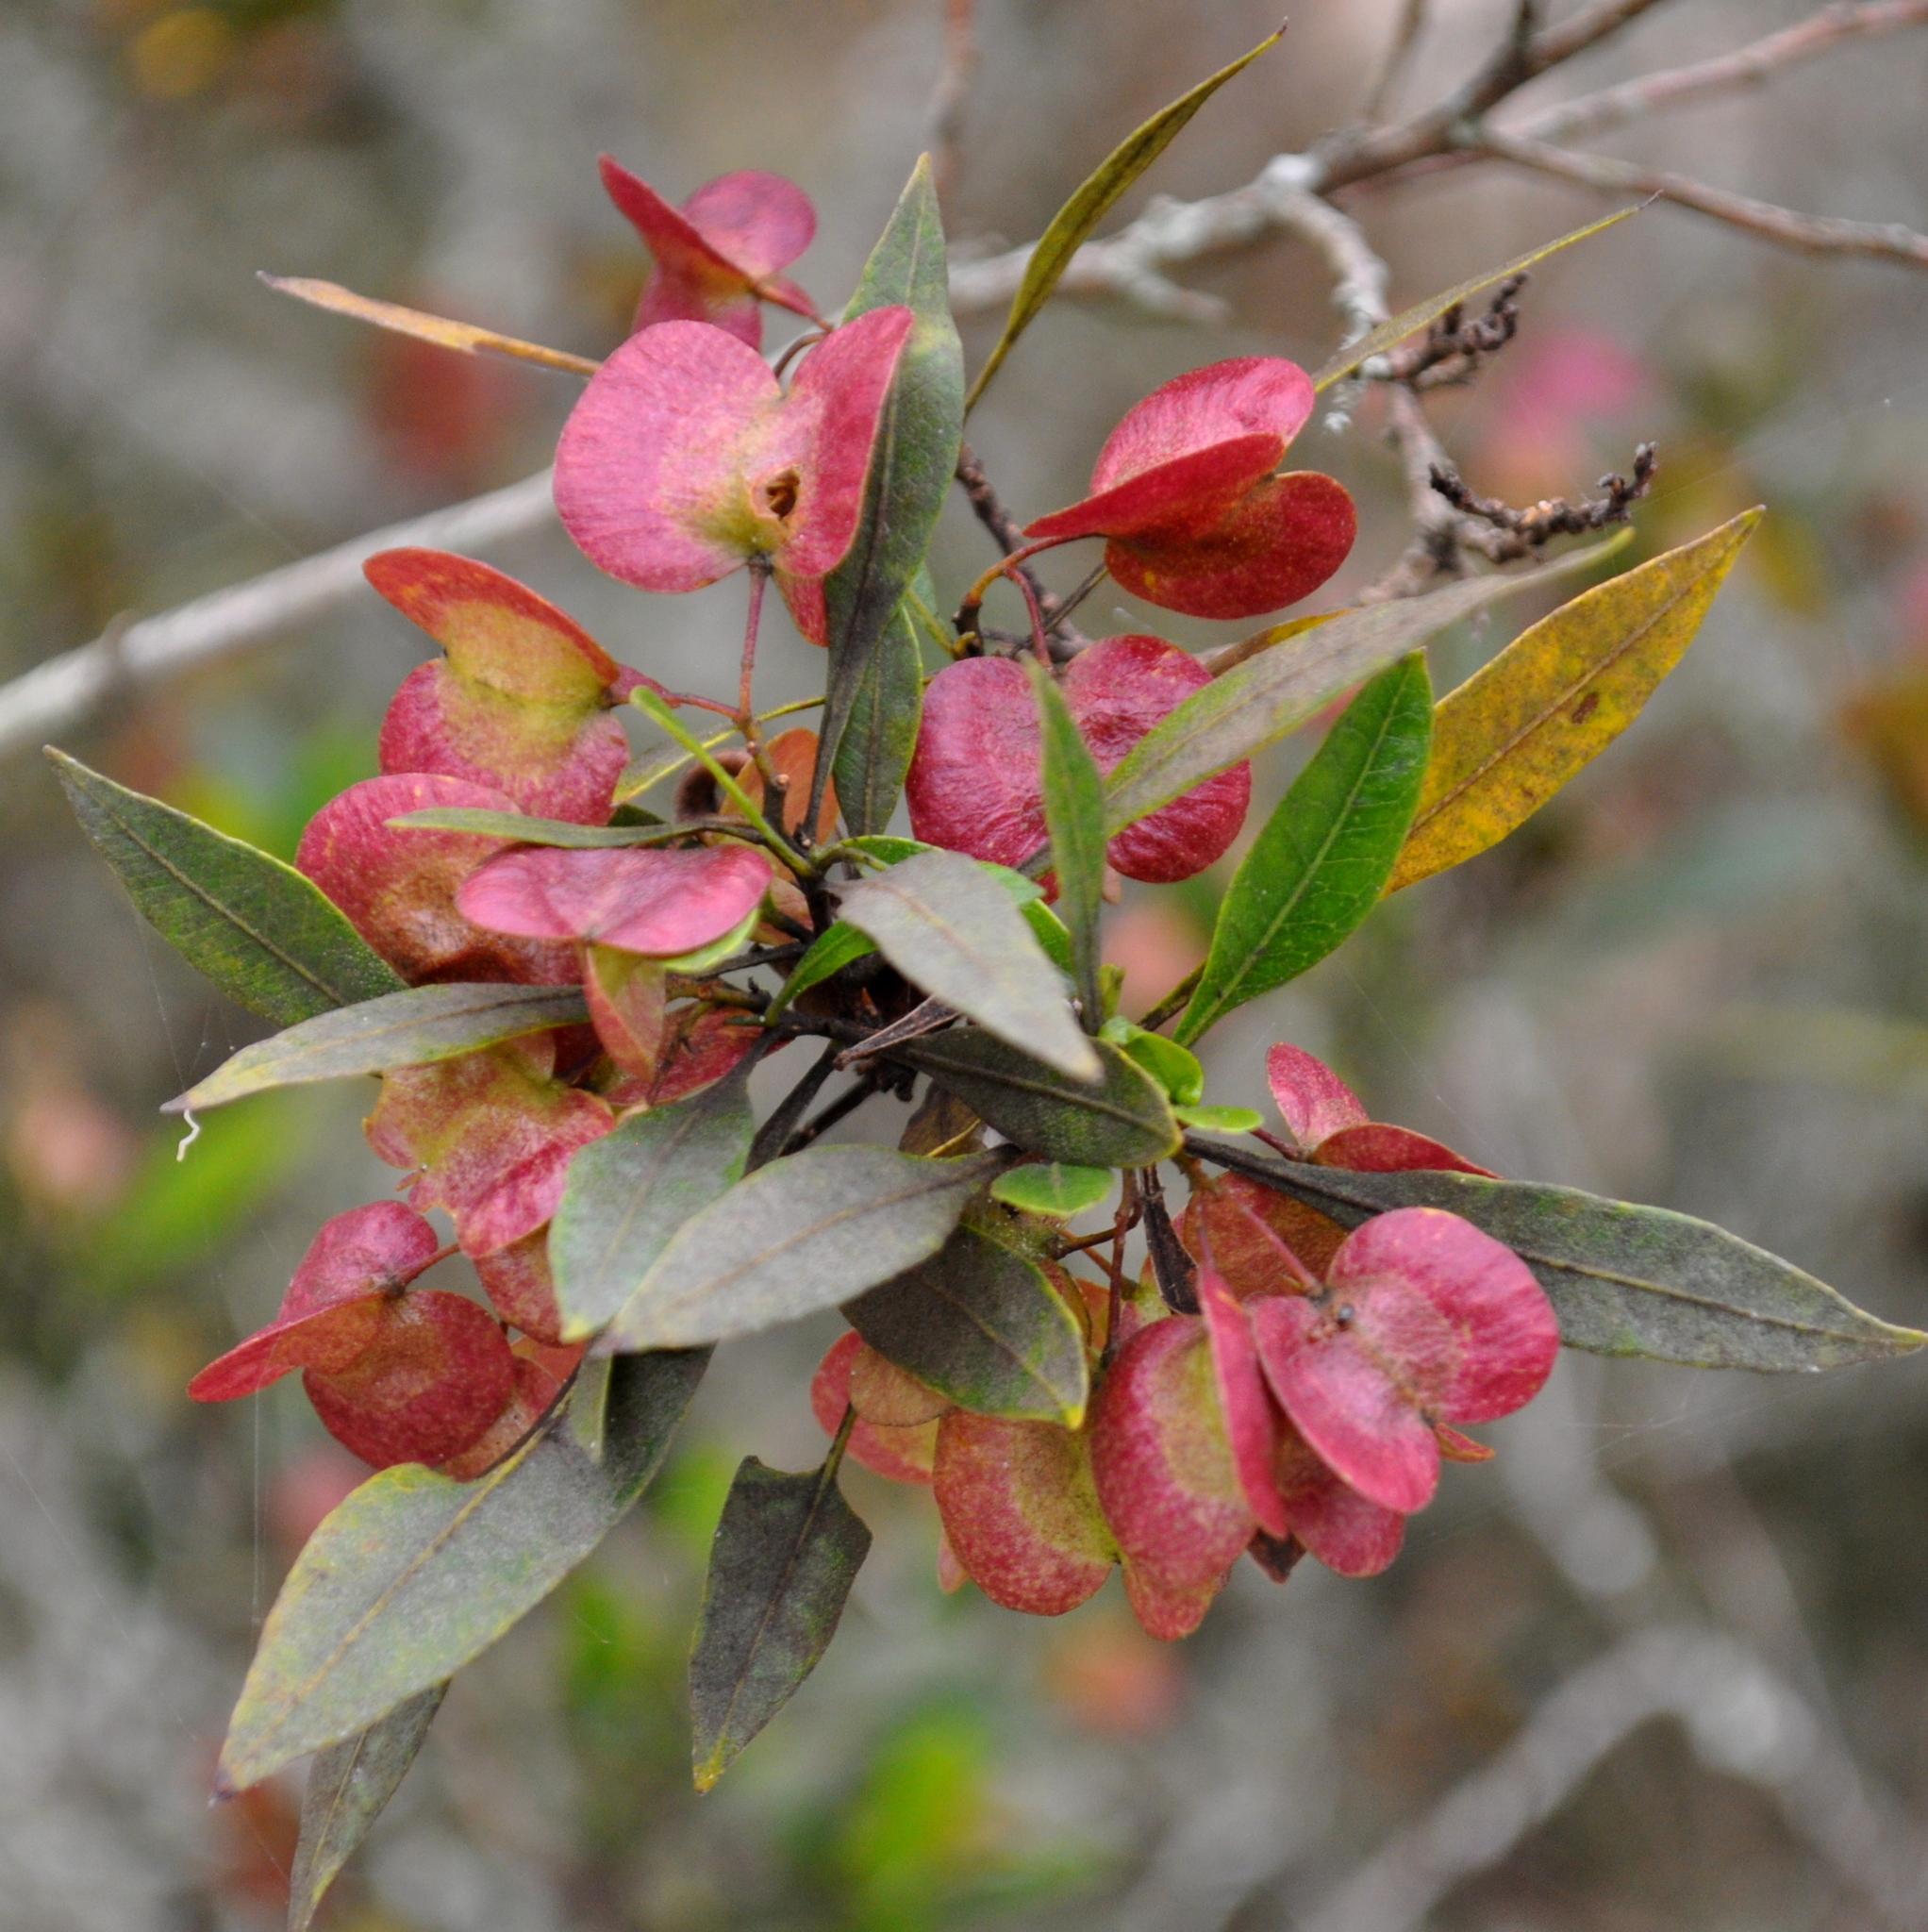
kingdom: Plantae
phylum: Tracheophyta
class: Magnoliopsida
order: Sapindales
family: Sapindaceae
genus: Dodonaea
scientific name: Dodonaea viscosa
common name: Hopbush
